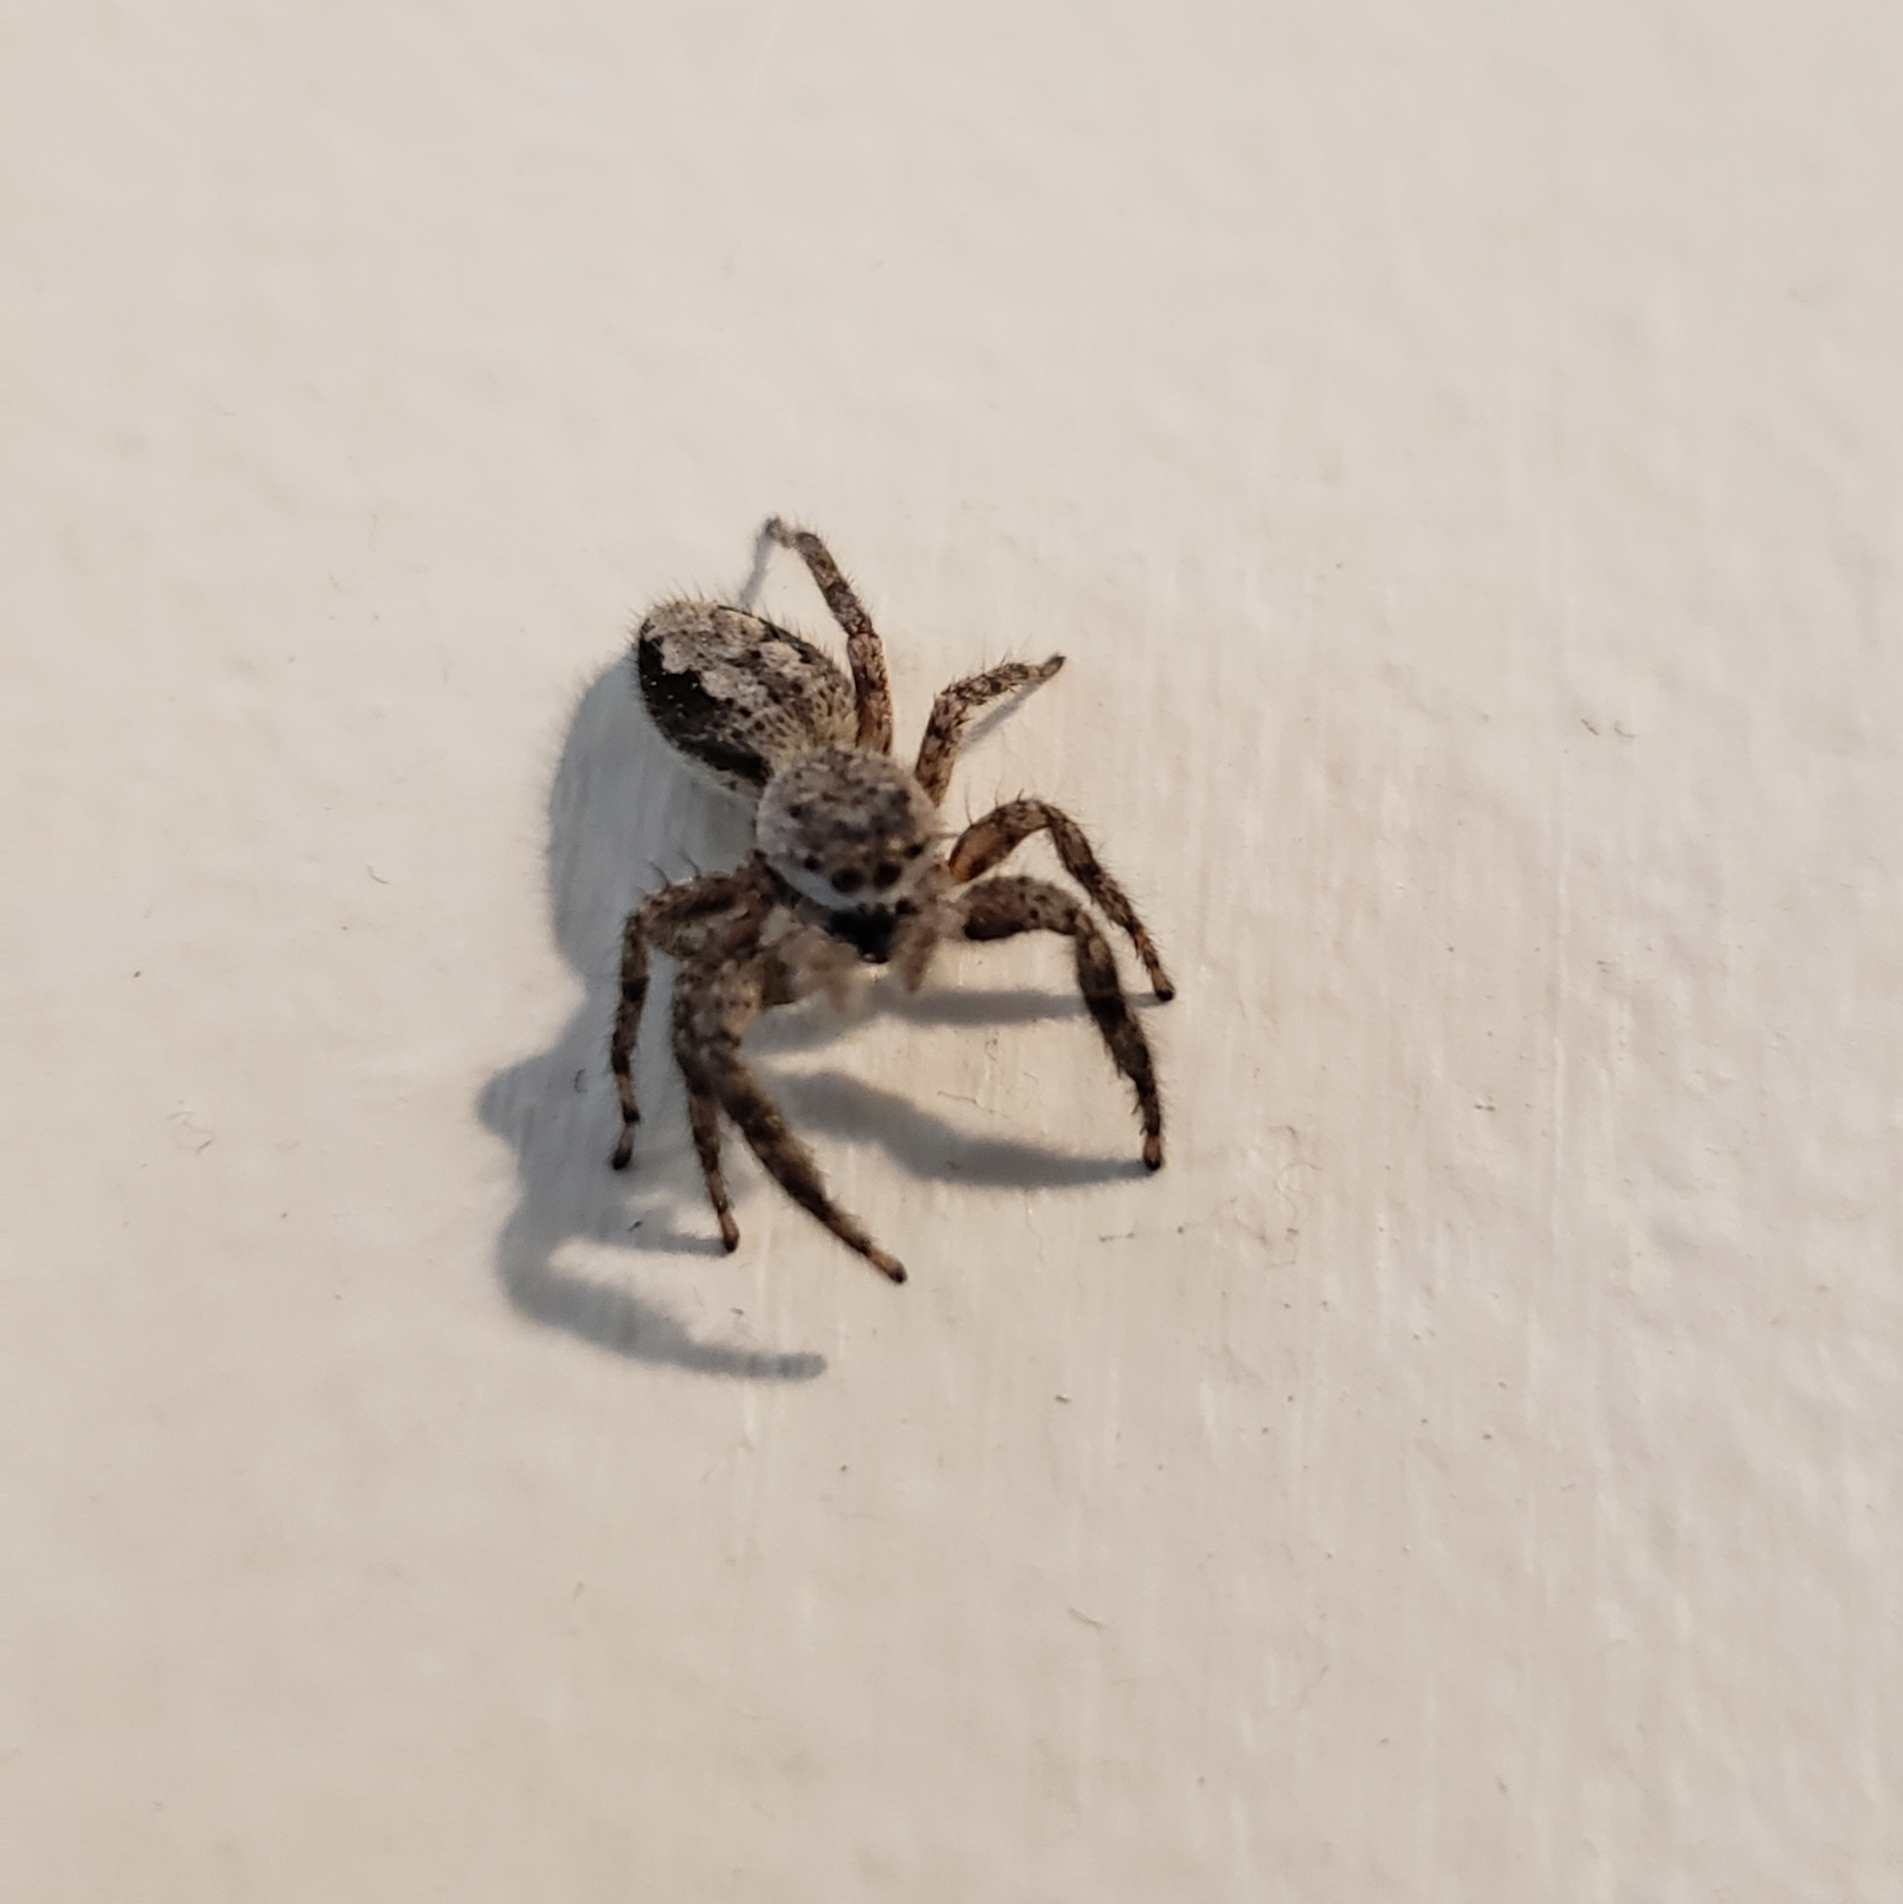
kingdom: Animalia
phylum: Arthropoda
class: Arachnida
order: Araneae
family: Salticidae
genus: Platycryptus
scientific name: Platycryptus undatus
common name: Tan jumping spider
